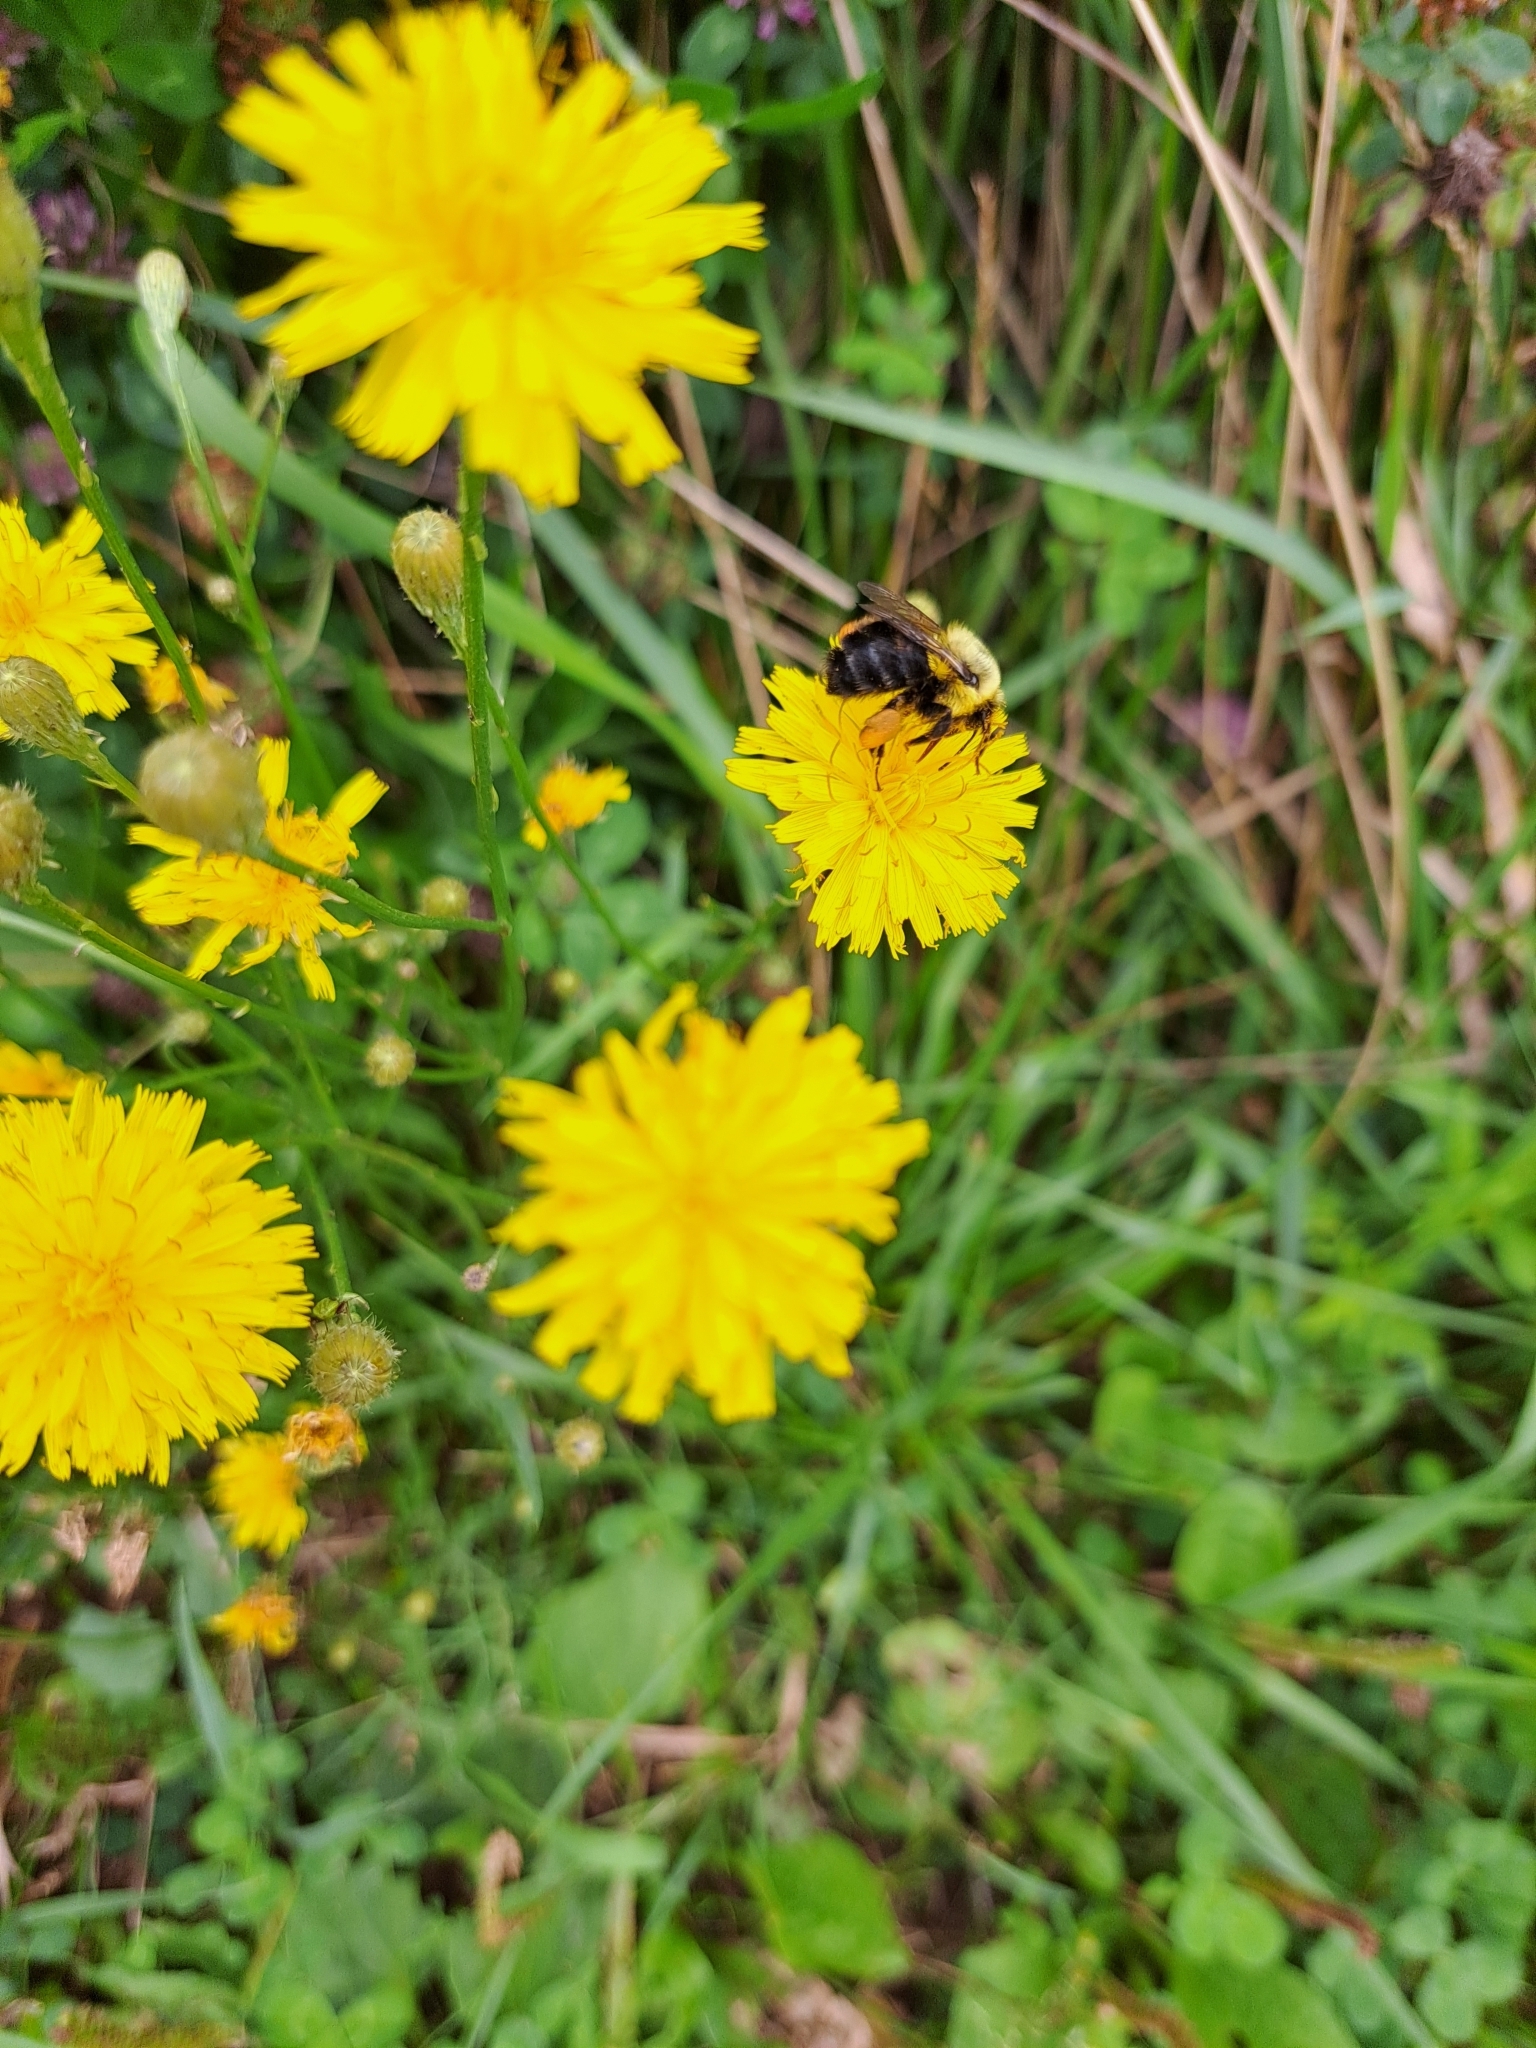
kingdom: Animalia
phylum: Arthropoda
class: Insecta
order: Hymenoptera
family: Apidae
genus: Bombus
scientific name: Bombus impatiens
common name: Common eastern bumble bee
